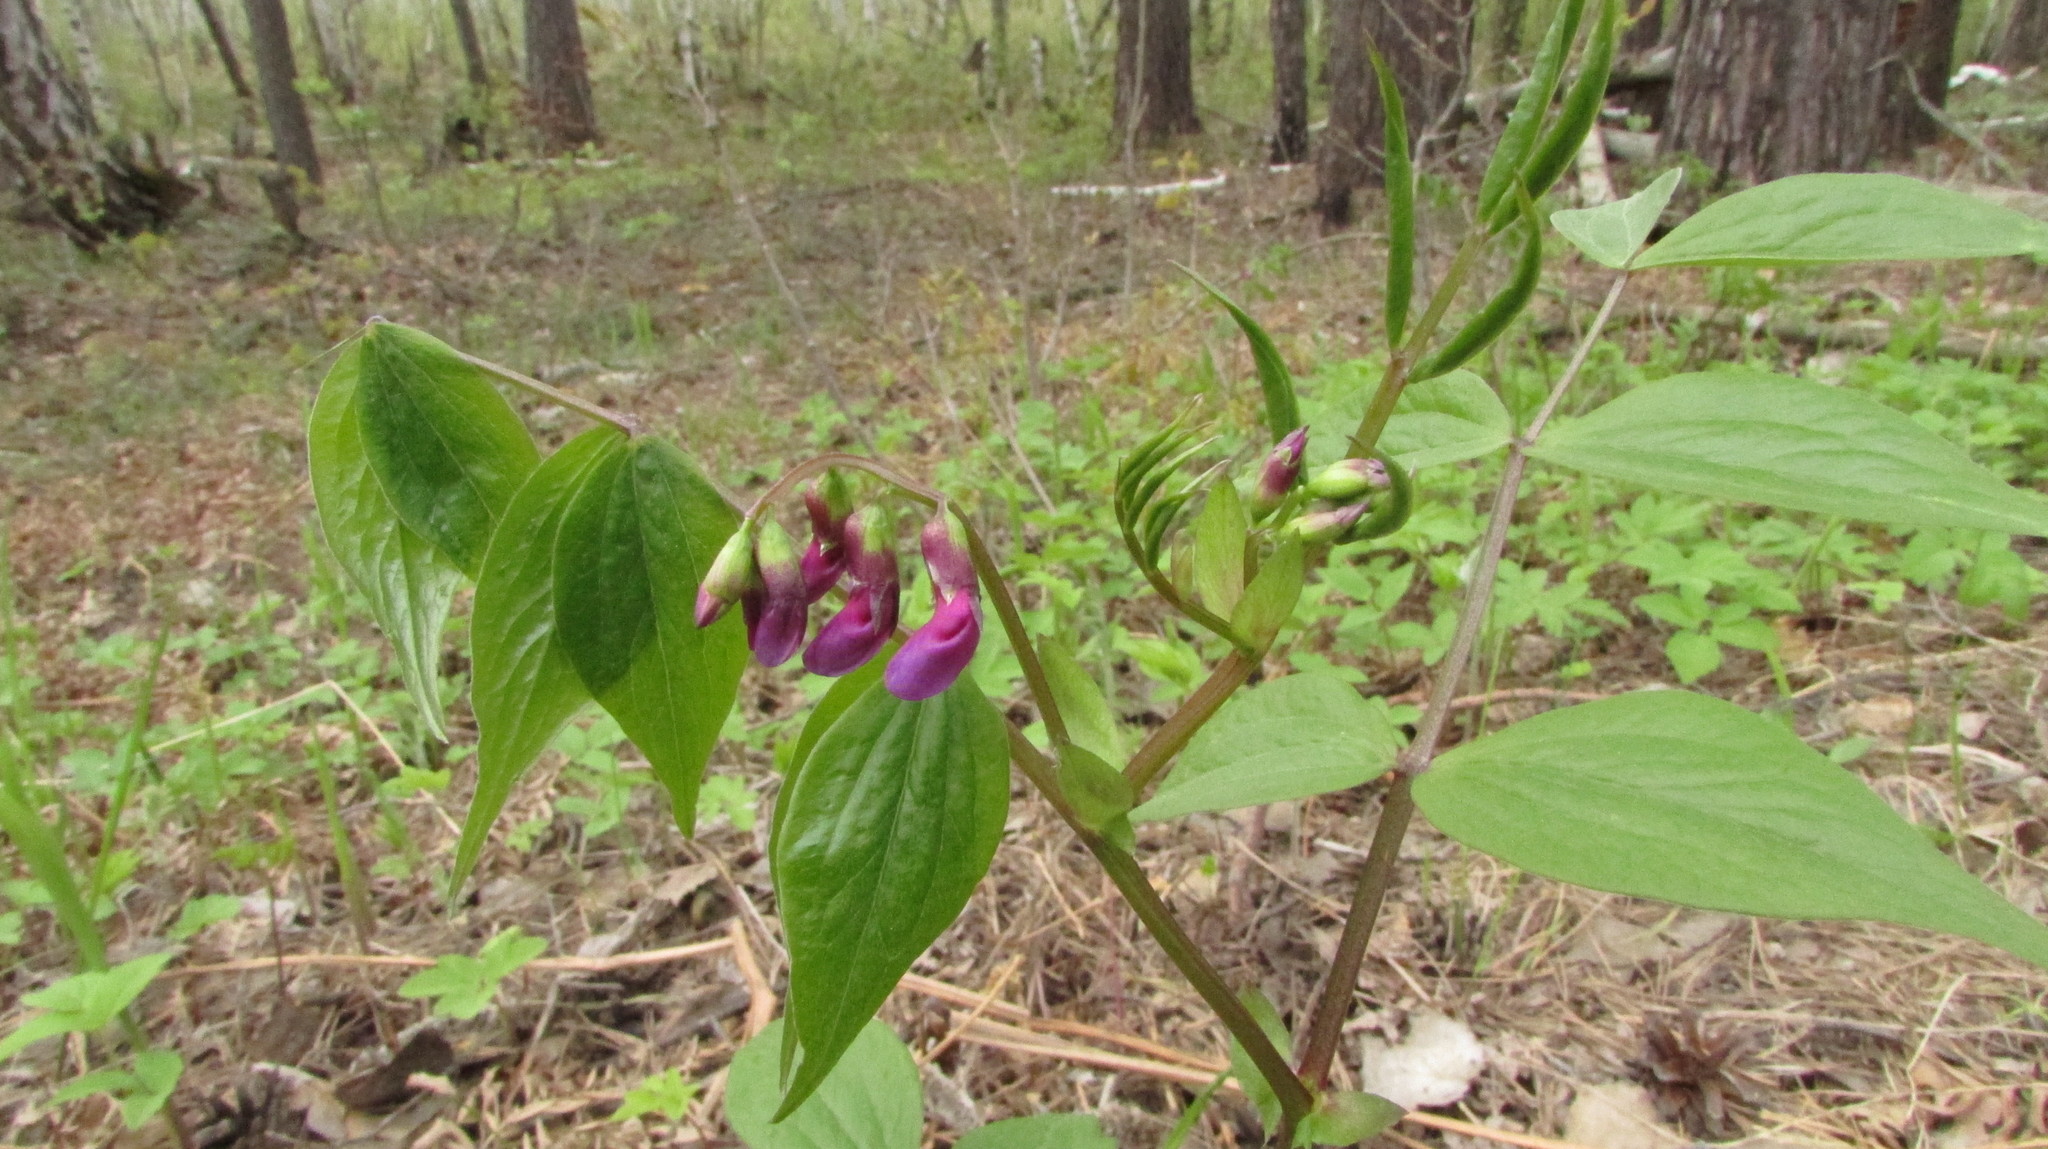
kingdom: Plantae
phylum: Tracheophyta
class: Magnoliopsida
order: Fabales
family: Fabaceae
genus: Lathyrus
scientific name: Lathyrus vernus
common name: Spring pea
